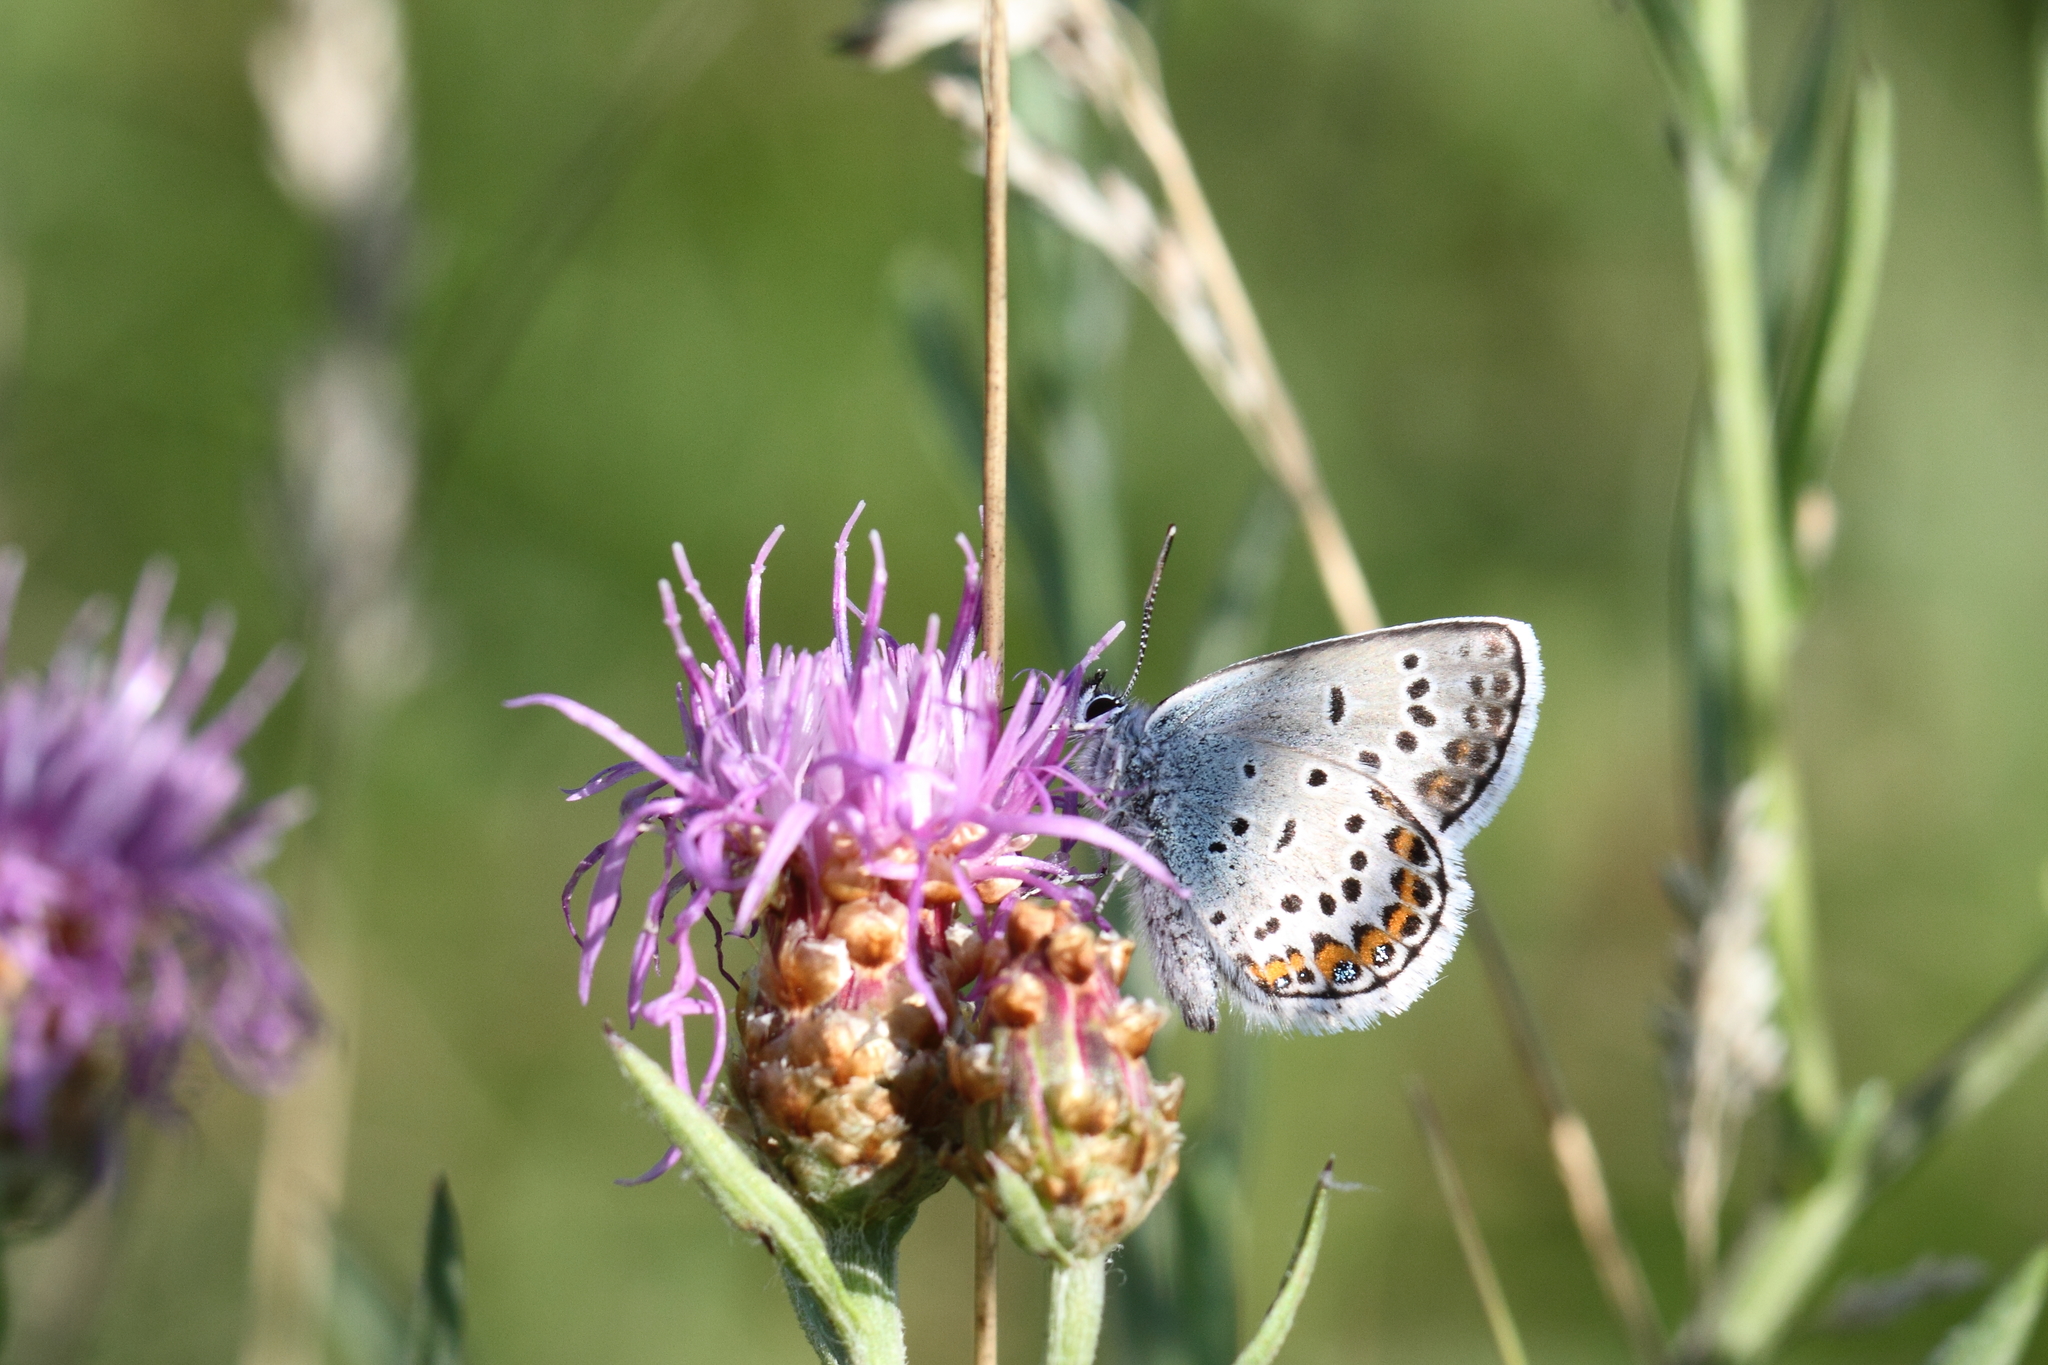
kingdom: Animalia
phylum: Arthropoda
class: Insecta
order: Lepidoptera
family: Lycaenidae
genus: Plebejus
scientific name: Plebejus argus
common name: Silver-studded blue
